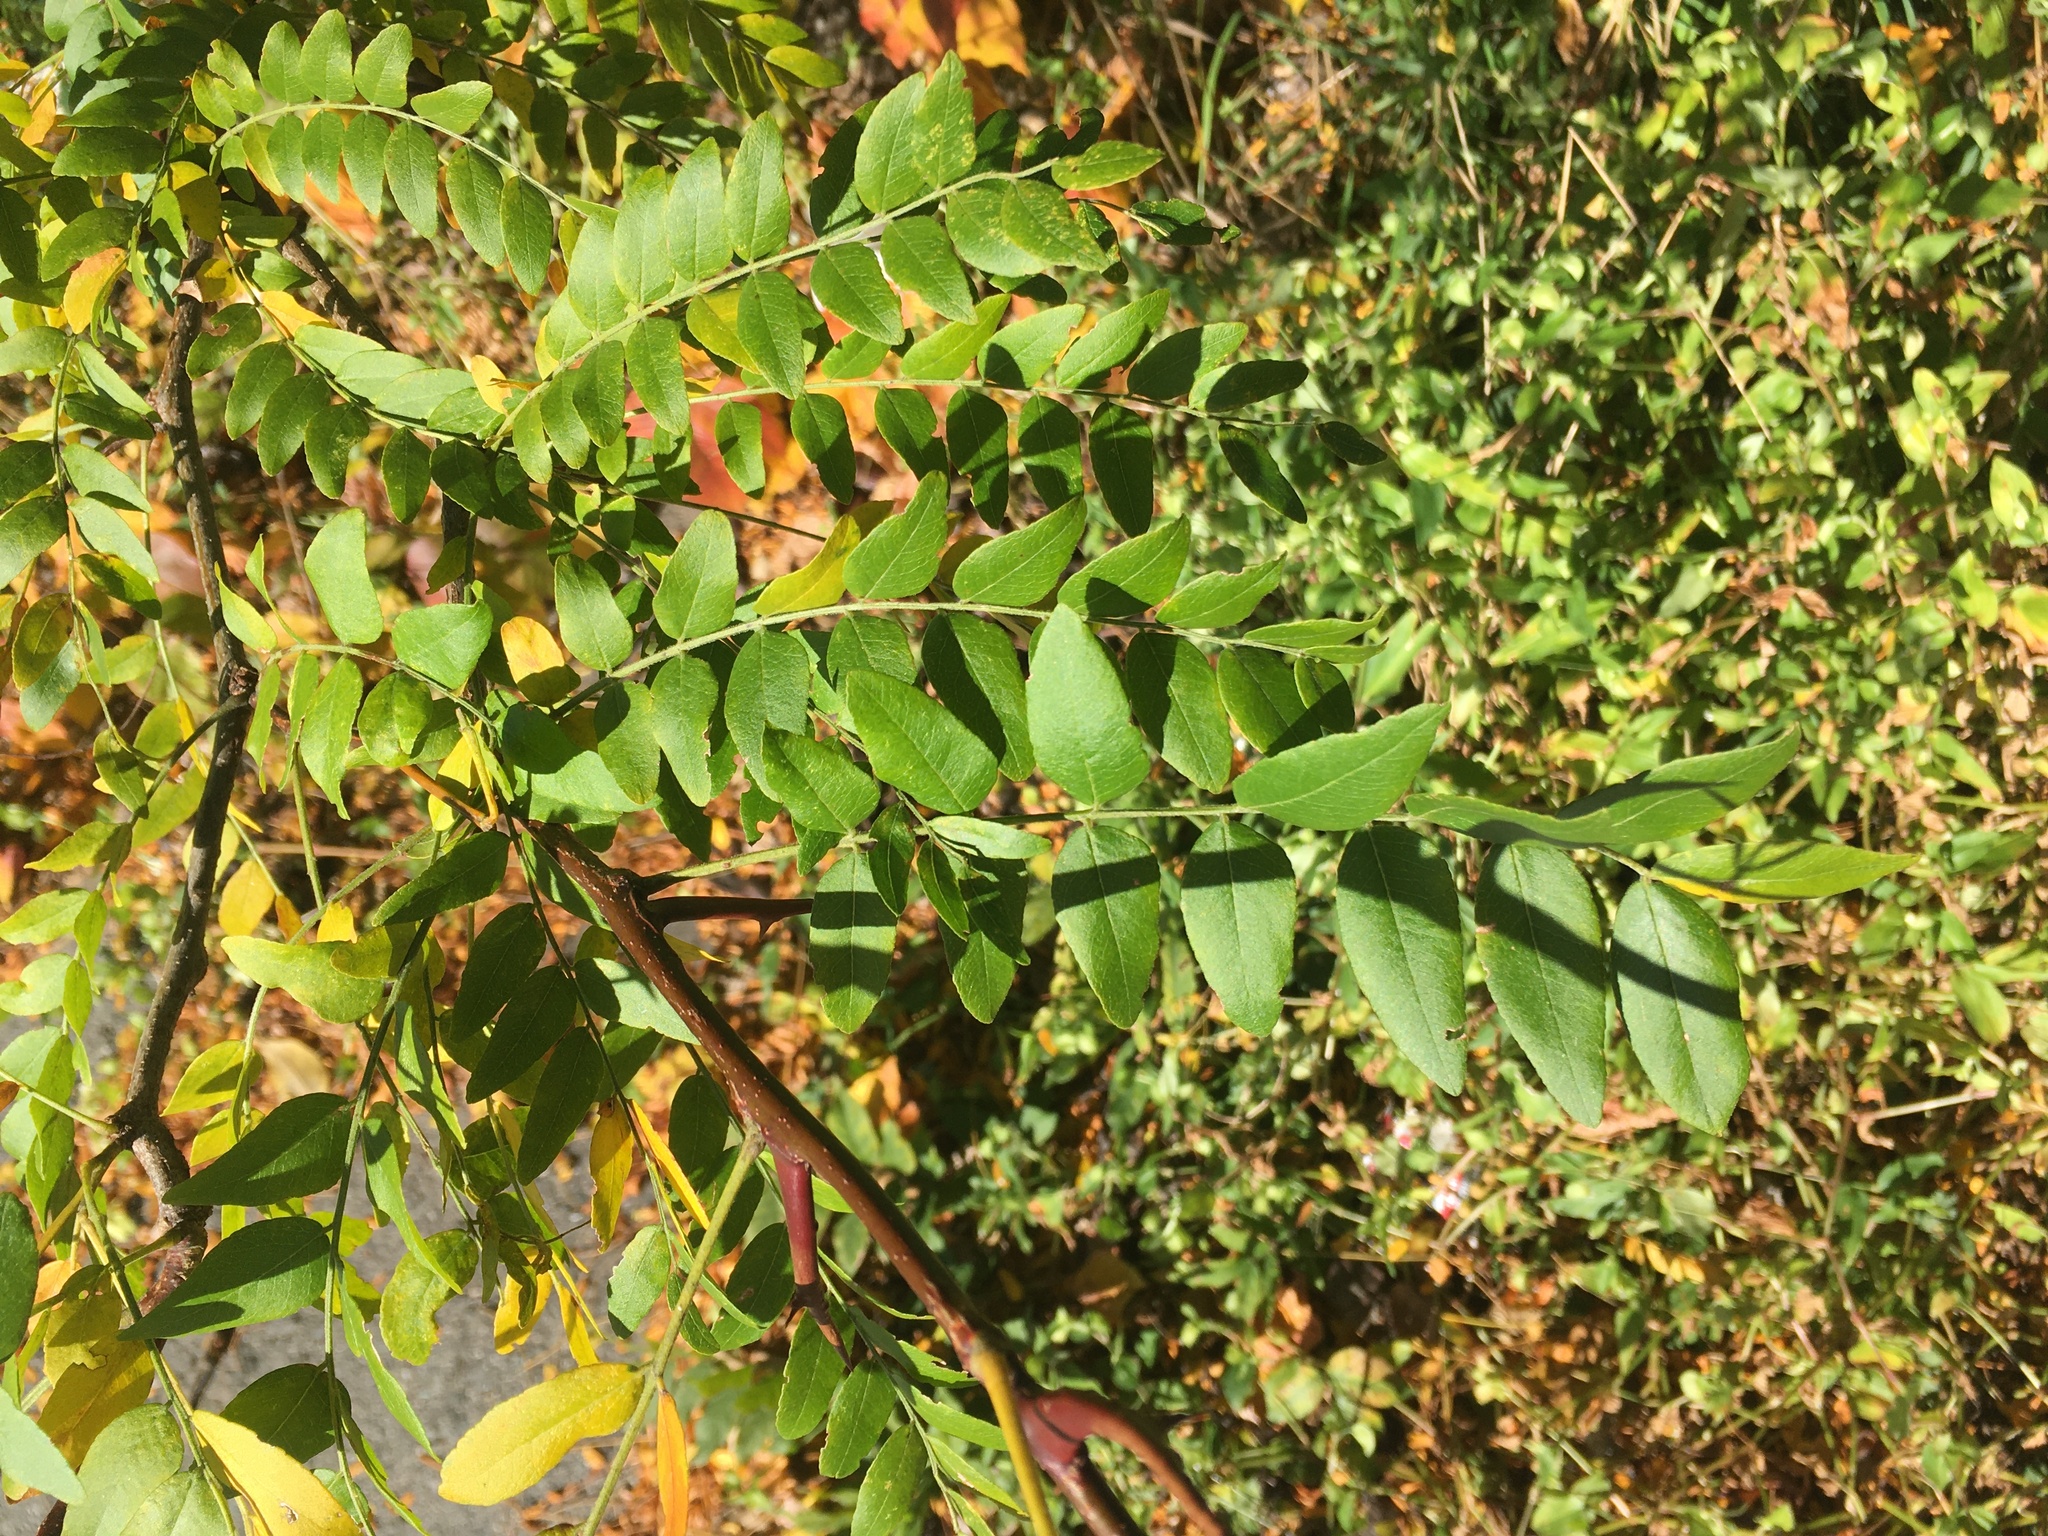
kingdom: Plantae
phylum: Tracheophyta
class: Magnoliopsida
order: Fabales
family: Fabaceae
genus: Gleditsia
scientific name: Gleditsia triacanthos
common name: Common honeylocust
